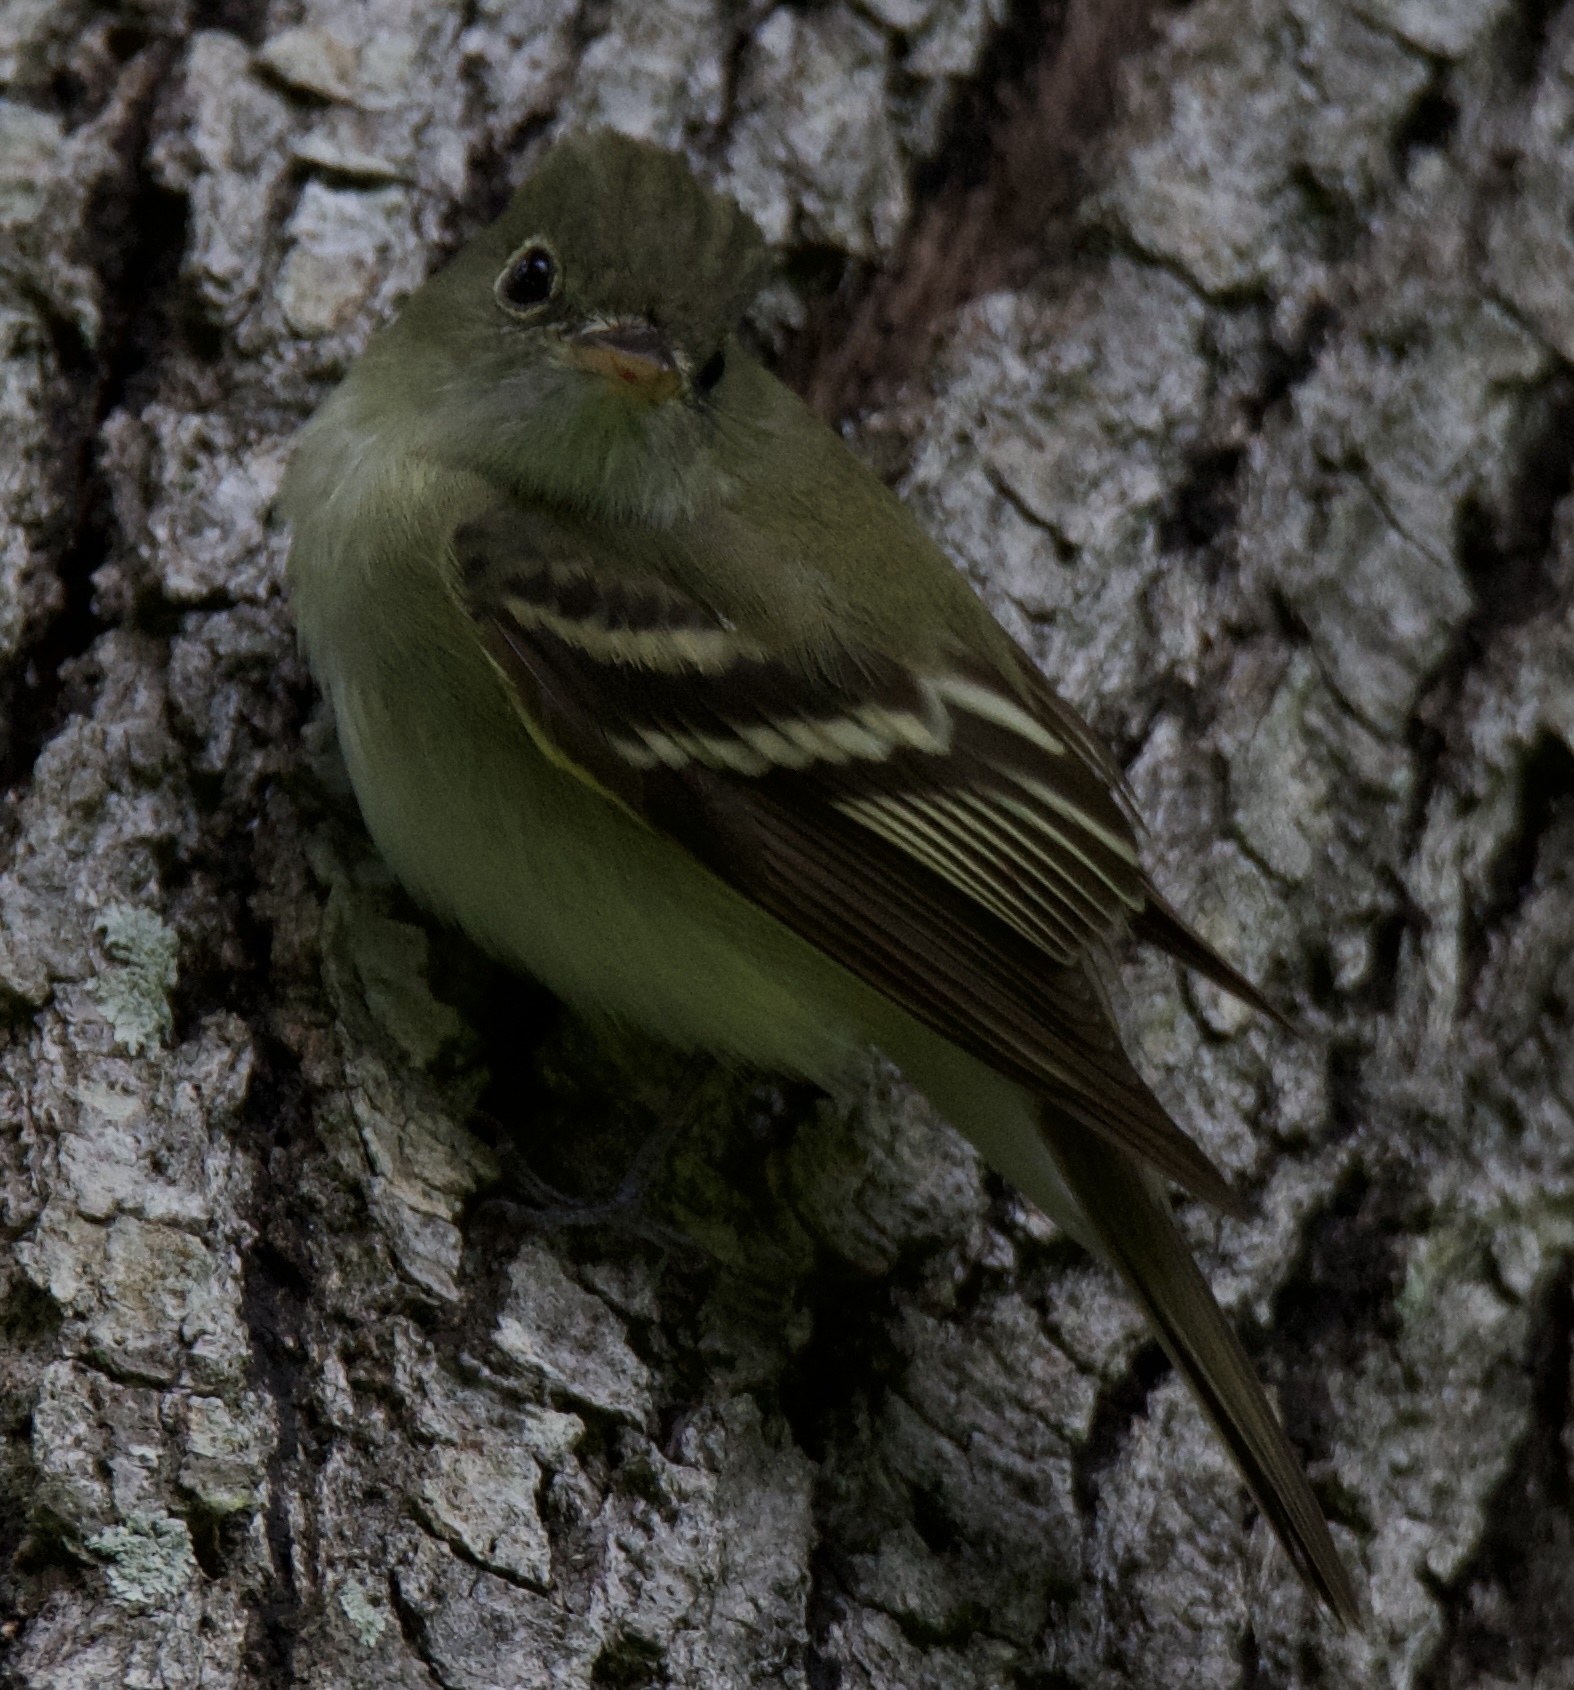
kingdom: Animalia
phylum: Chordata
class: Aves
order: Passeriformes
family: Tyrannidae
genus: Empidonax
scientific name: Empidonax virescens
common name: Acadian flycatcher
